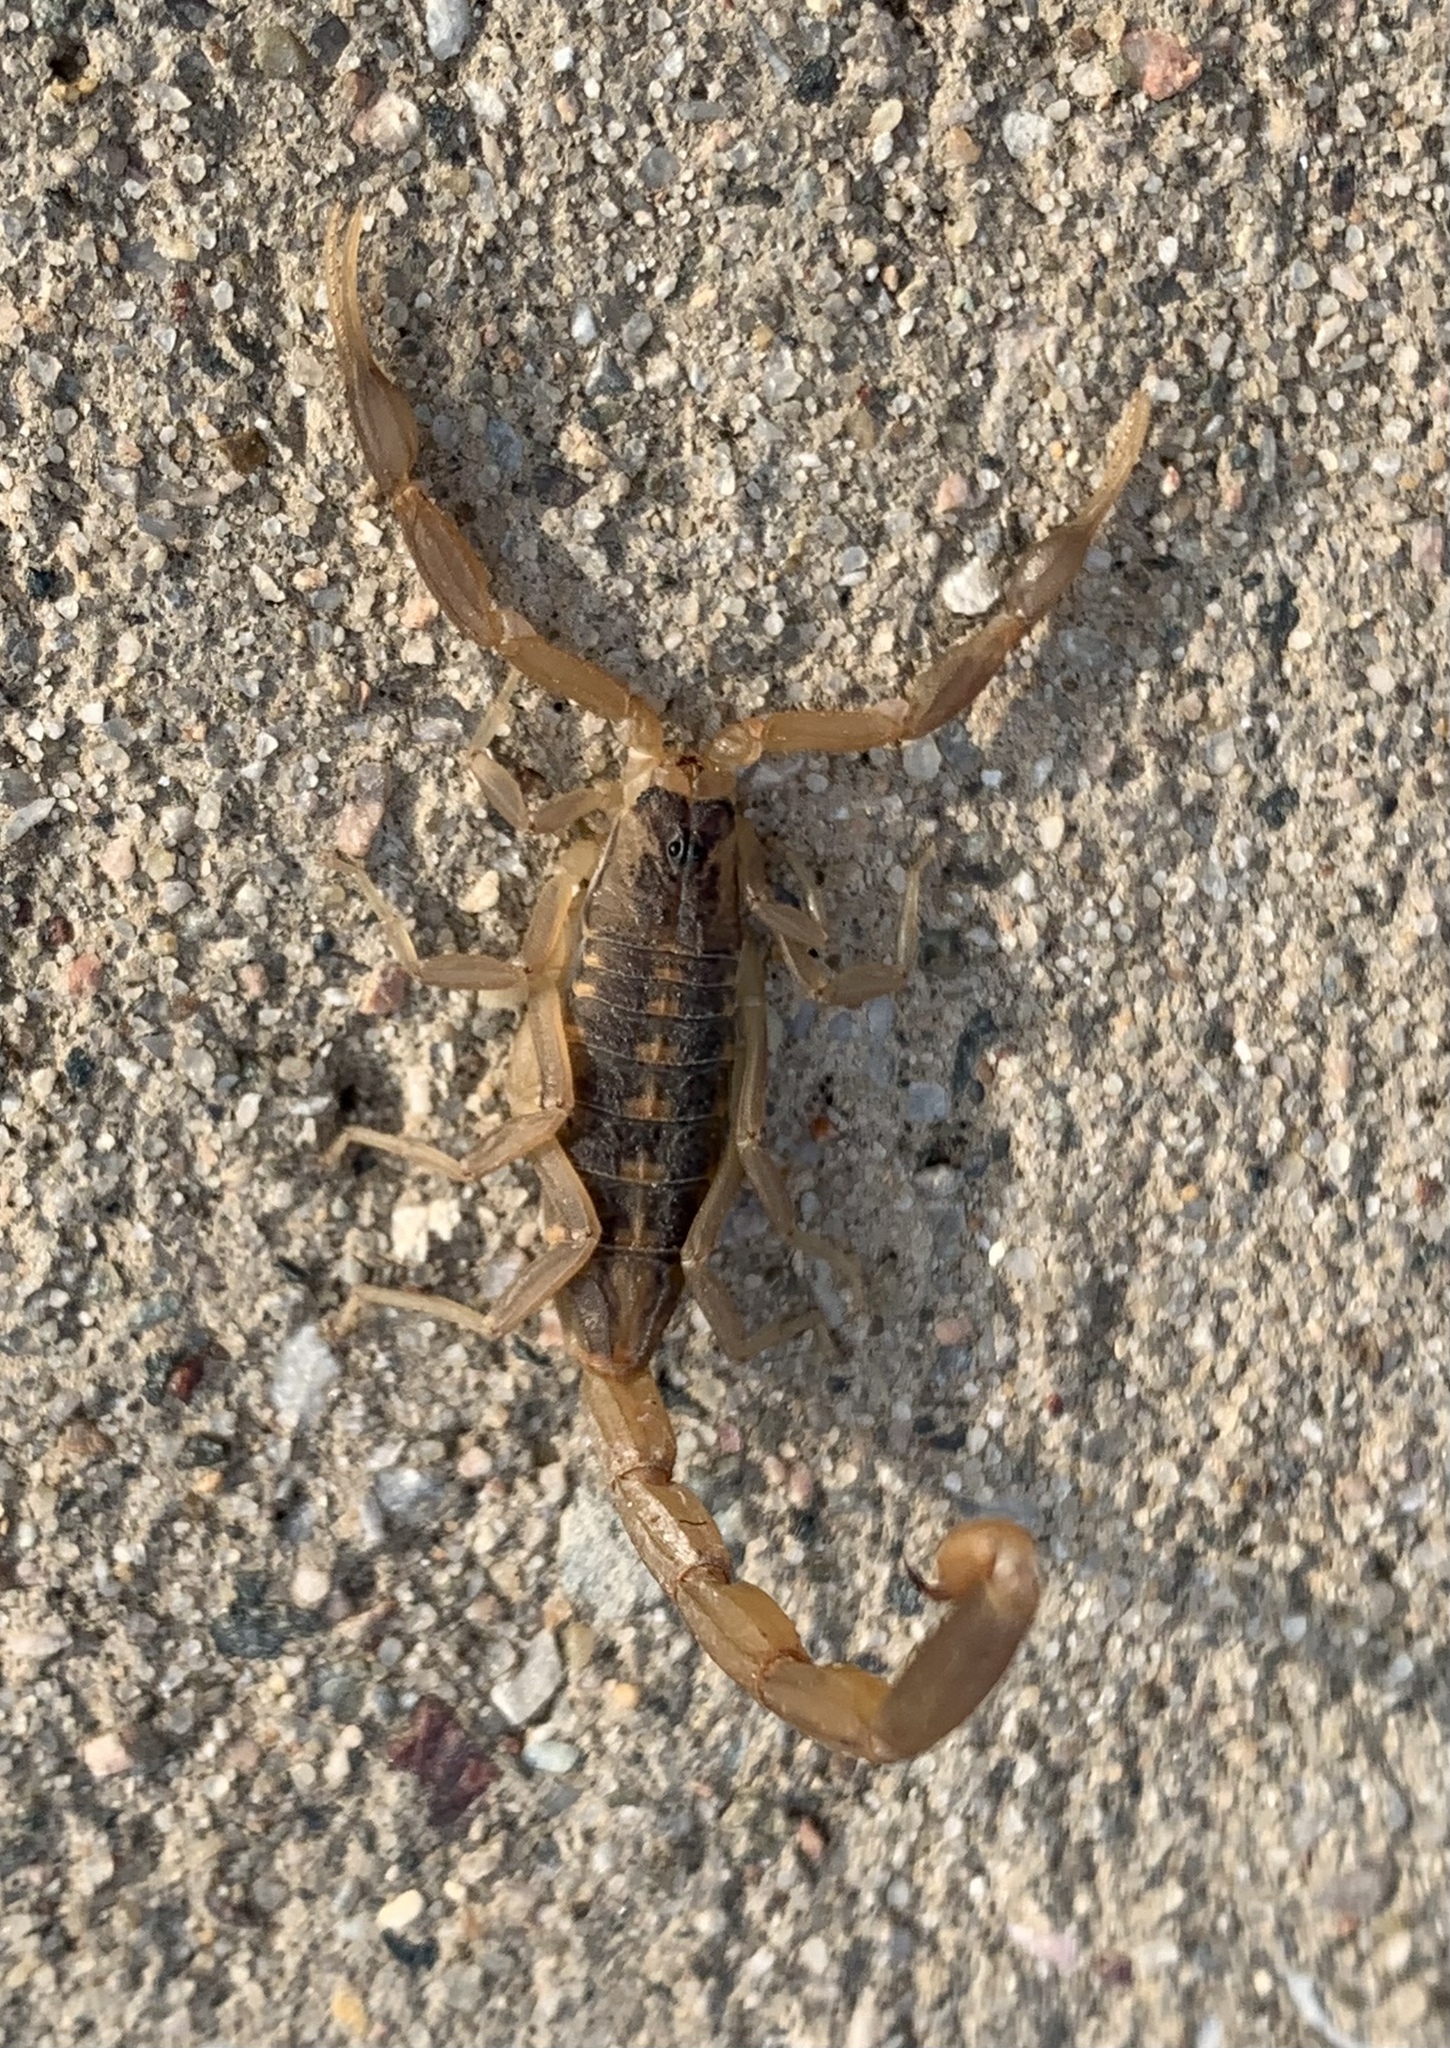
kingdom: Animalia
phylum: Arthropoda
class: Arachnida
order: Scorpiones
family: Buthidae
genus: Centruroides
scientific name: Centruroides vittatus
